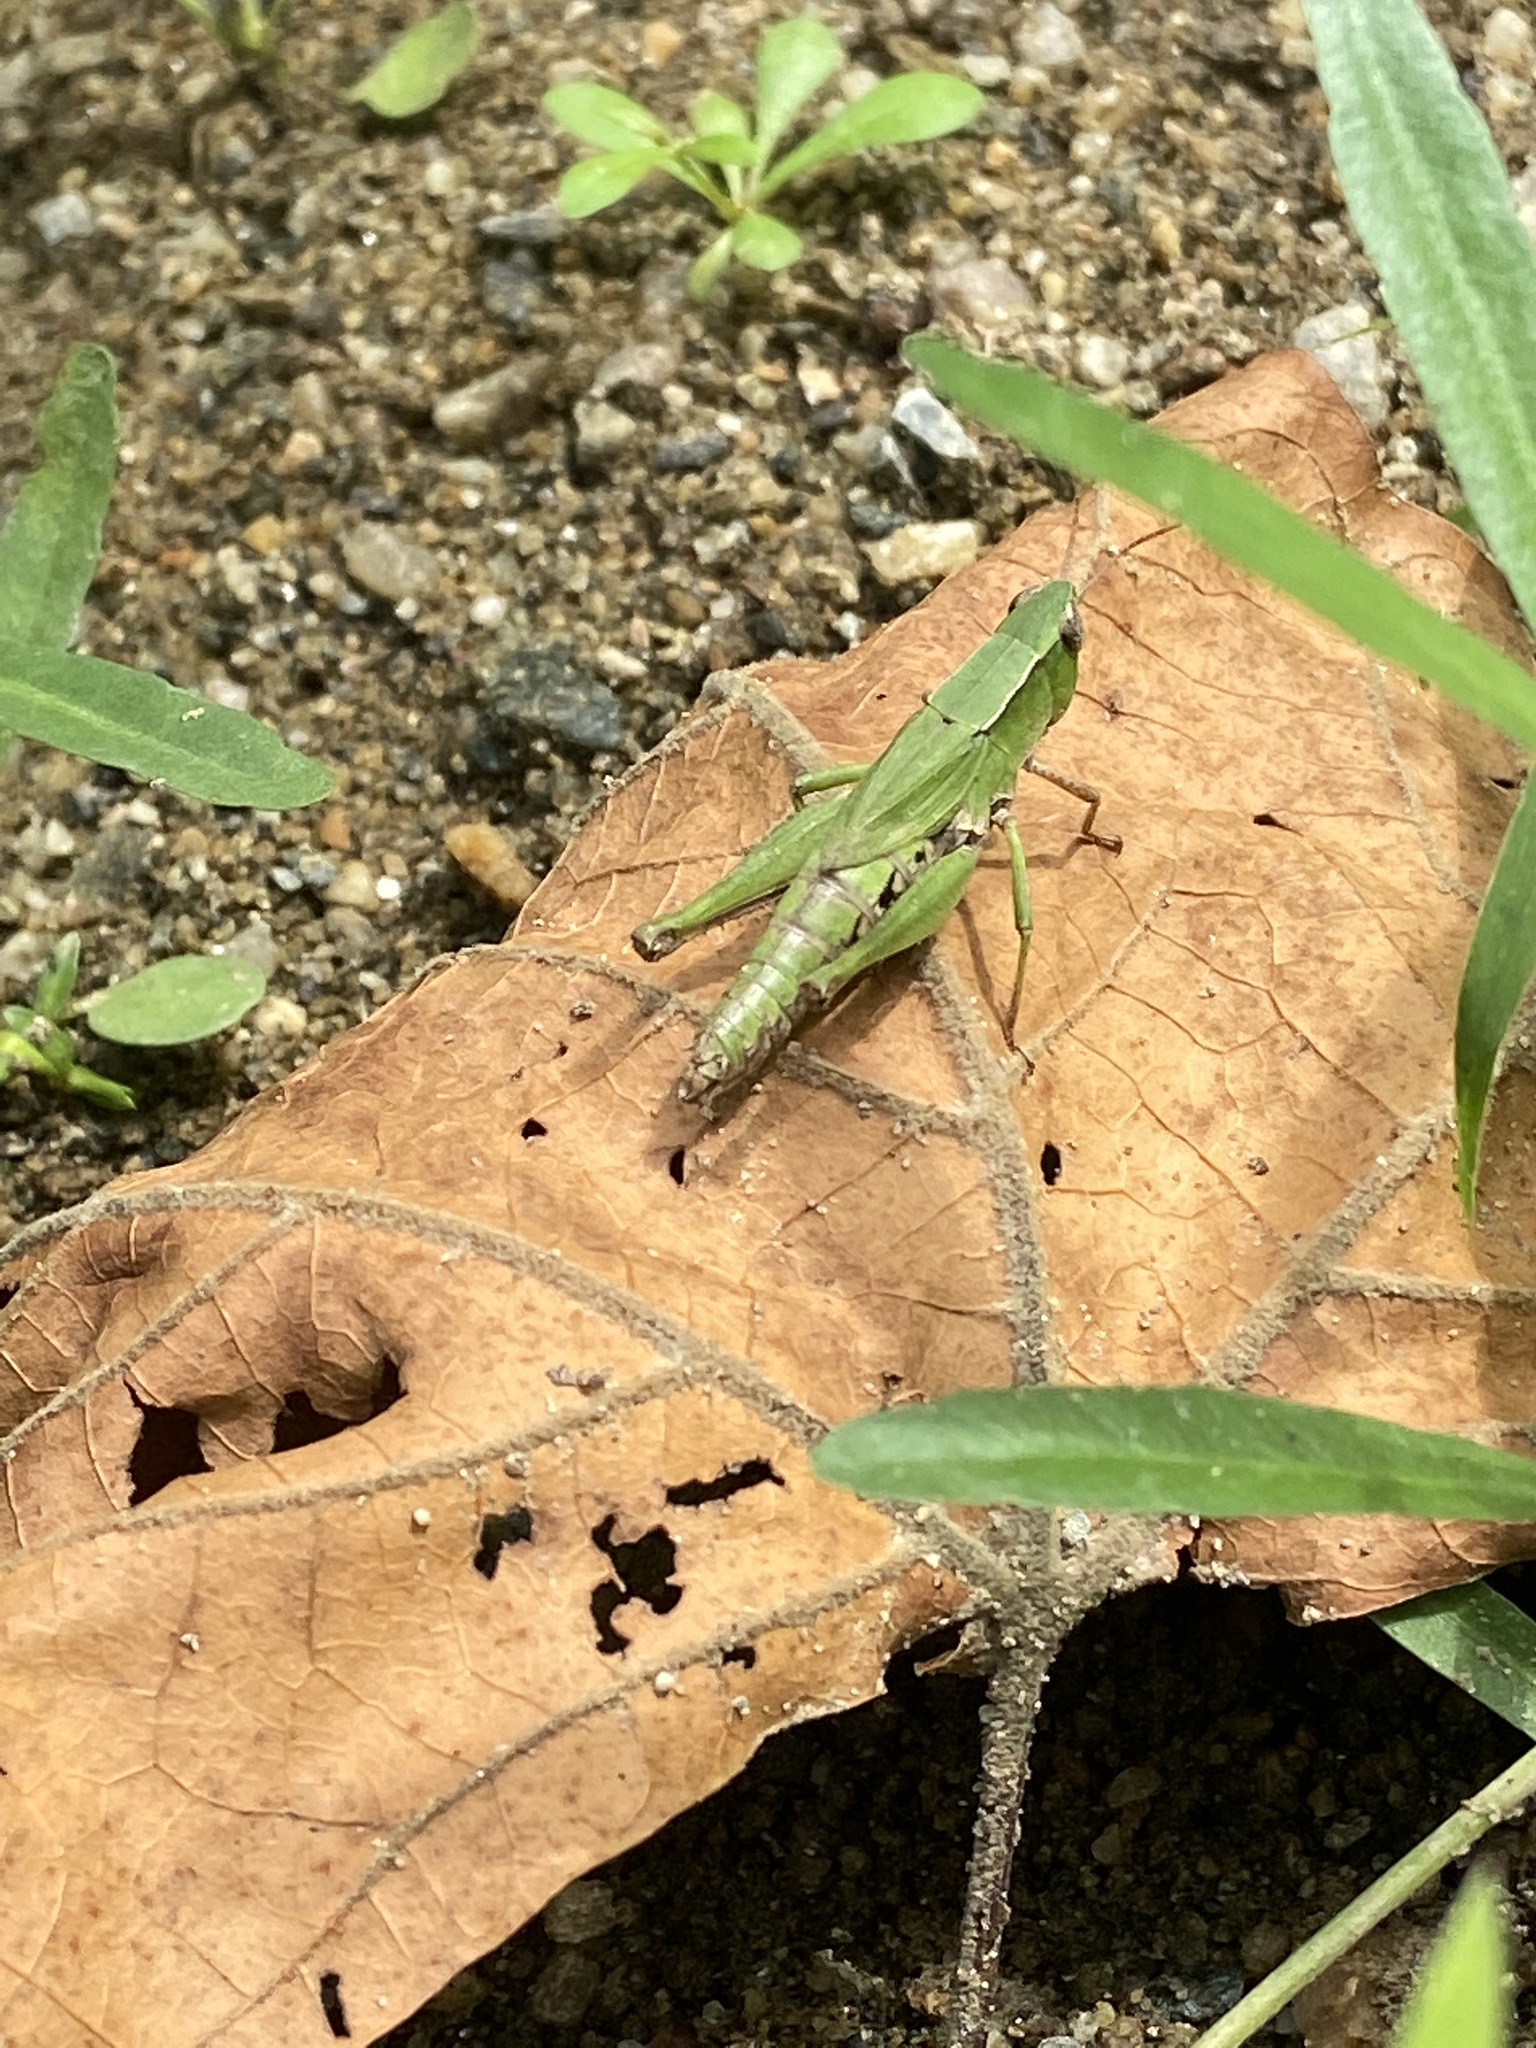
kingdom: Animalia
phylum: Arthropoda
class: Insecta
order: Orthoptera
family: Acrididae
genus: Dichromorpha
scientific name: Dichromorpha viridis
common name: Short-winged green grasshopper
